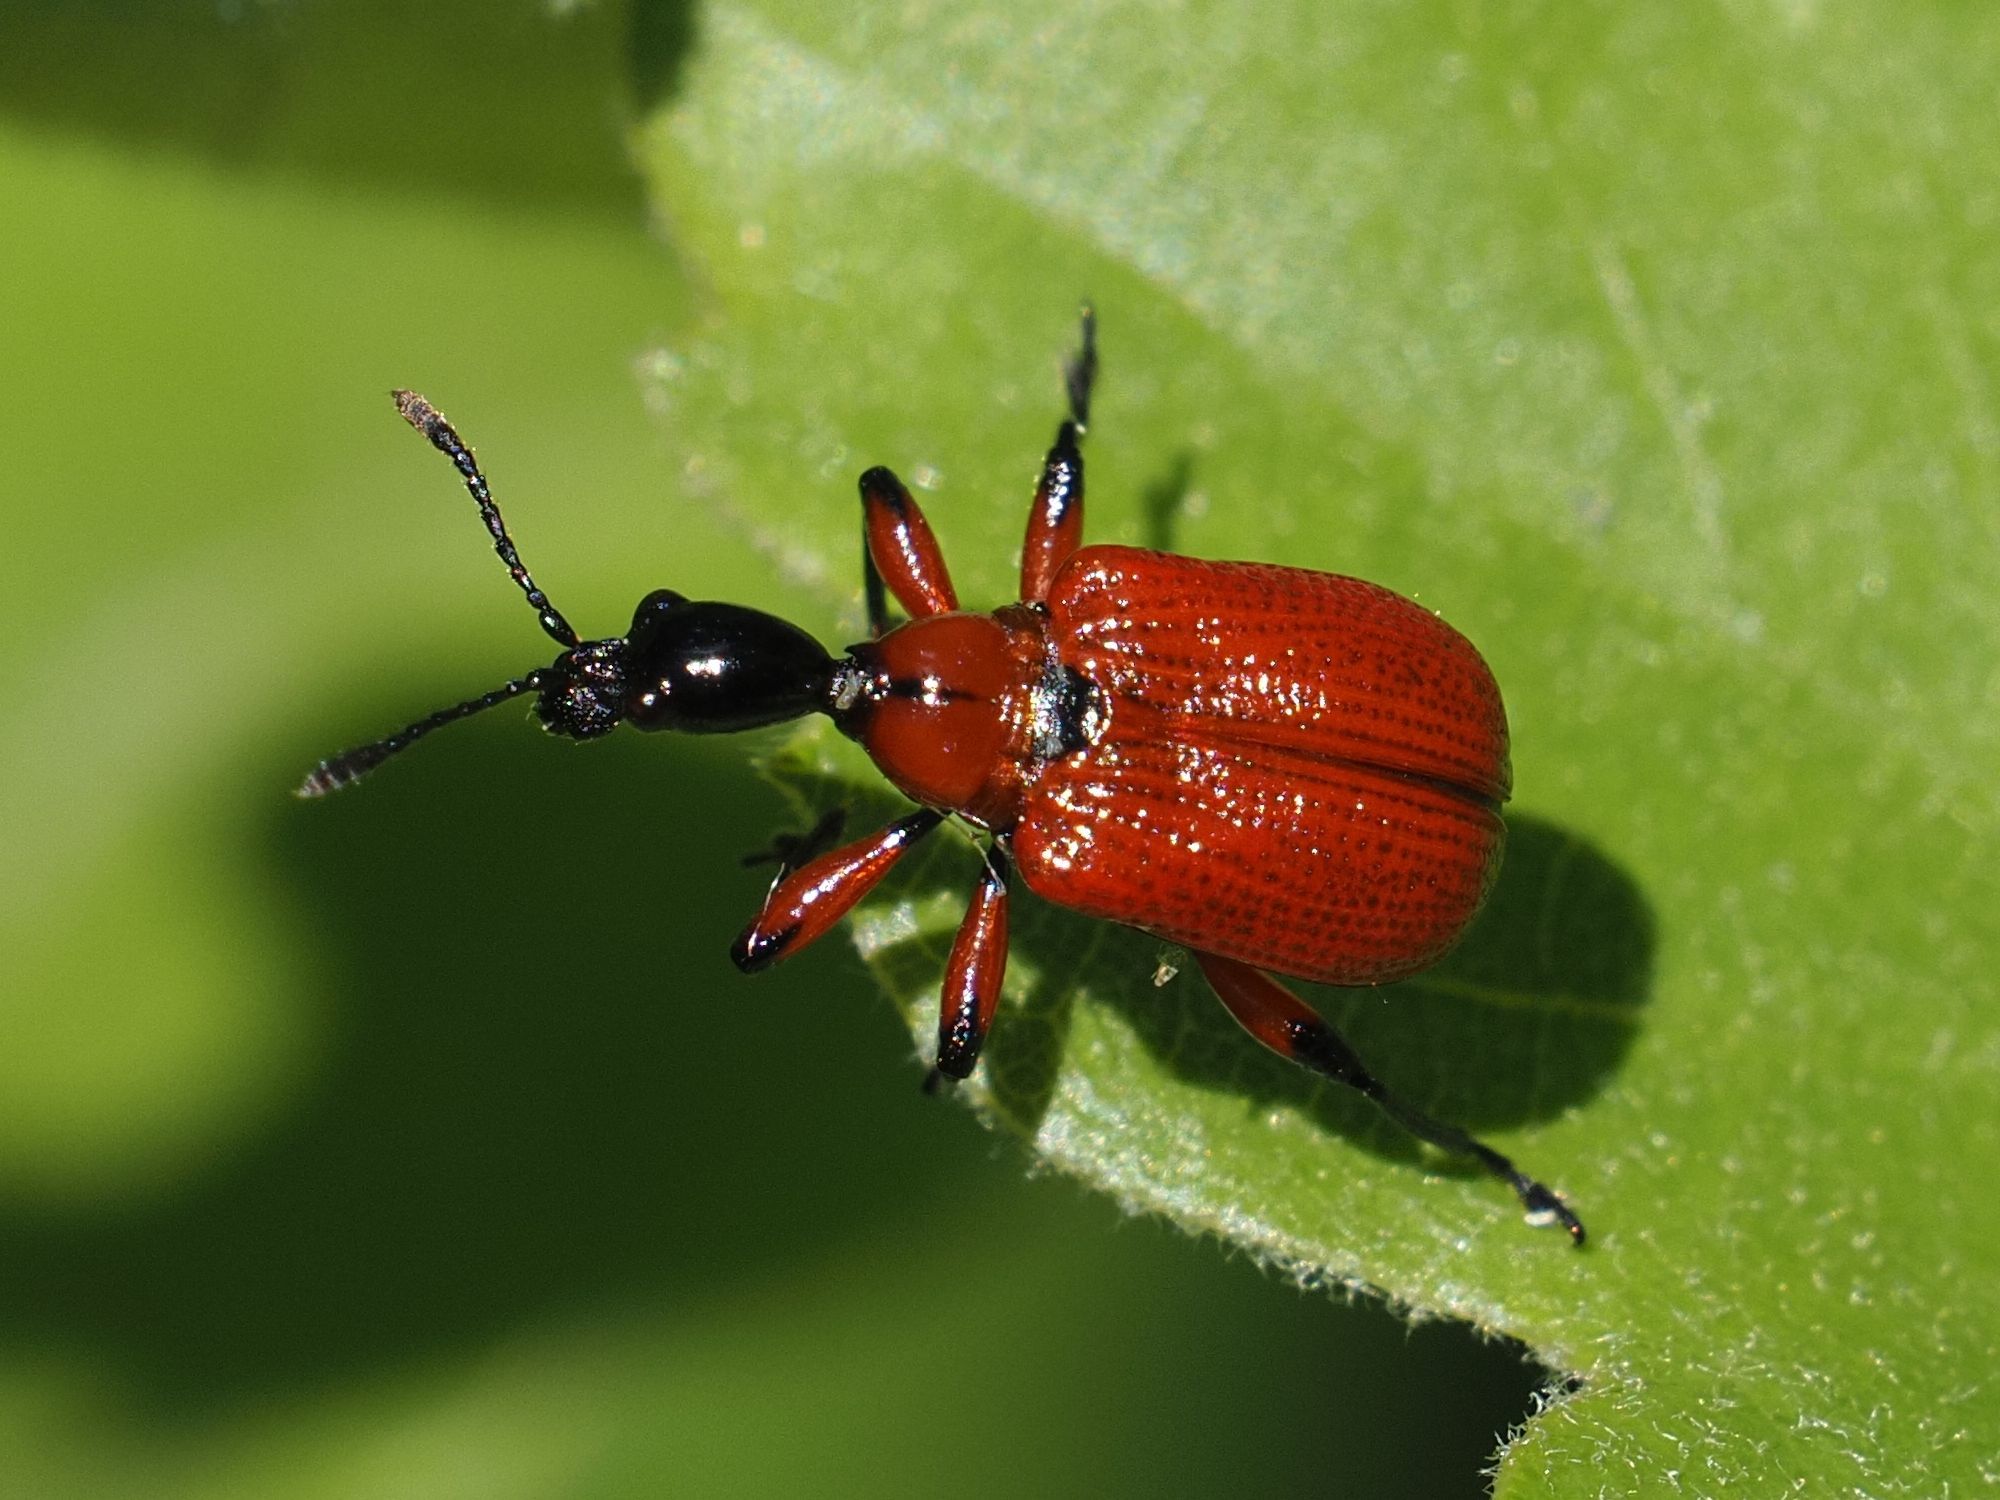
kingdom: Animalia
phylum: Arthropoda
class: Insecta
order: Coleoptera
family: Attelabidae
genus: Apoderus
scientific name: Apoderus coryli
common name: Hazel leaf roller
